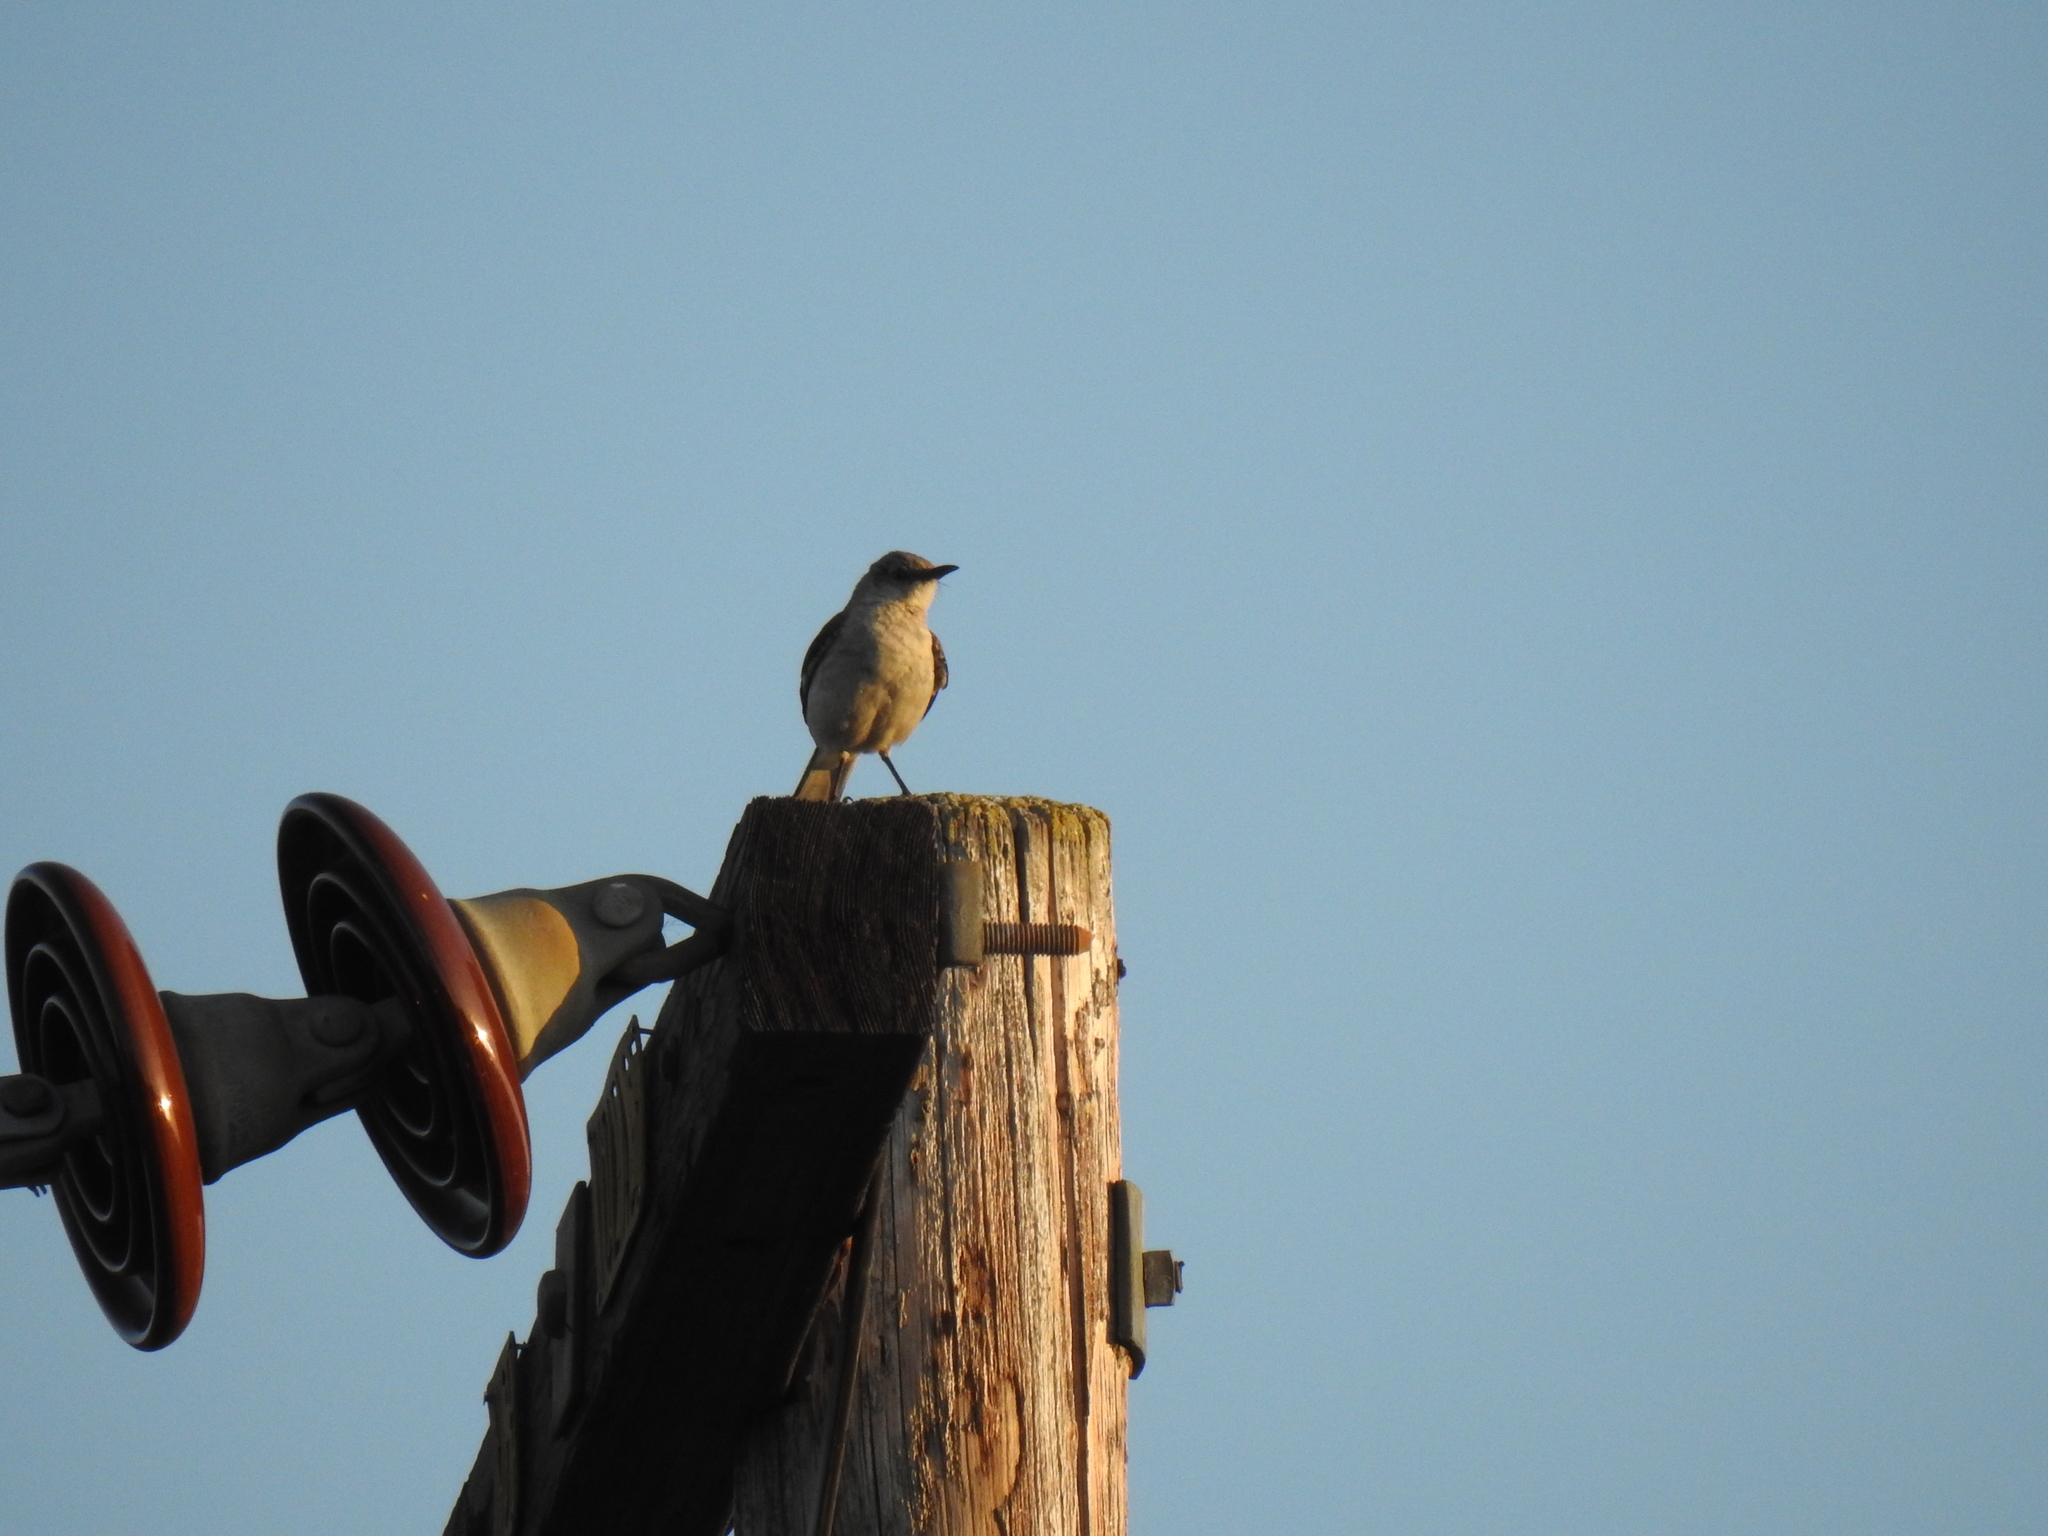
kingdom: Animalia
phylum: Chordata
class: Aves
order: Passeriformes
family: Mimidae
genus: Mimus
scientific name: Mimus polyglottos
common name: Northern mockingbird
